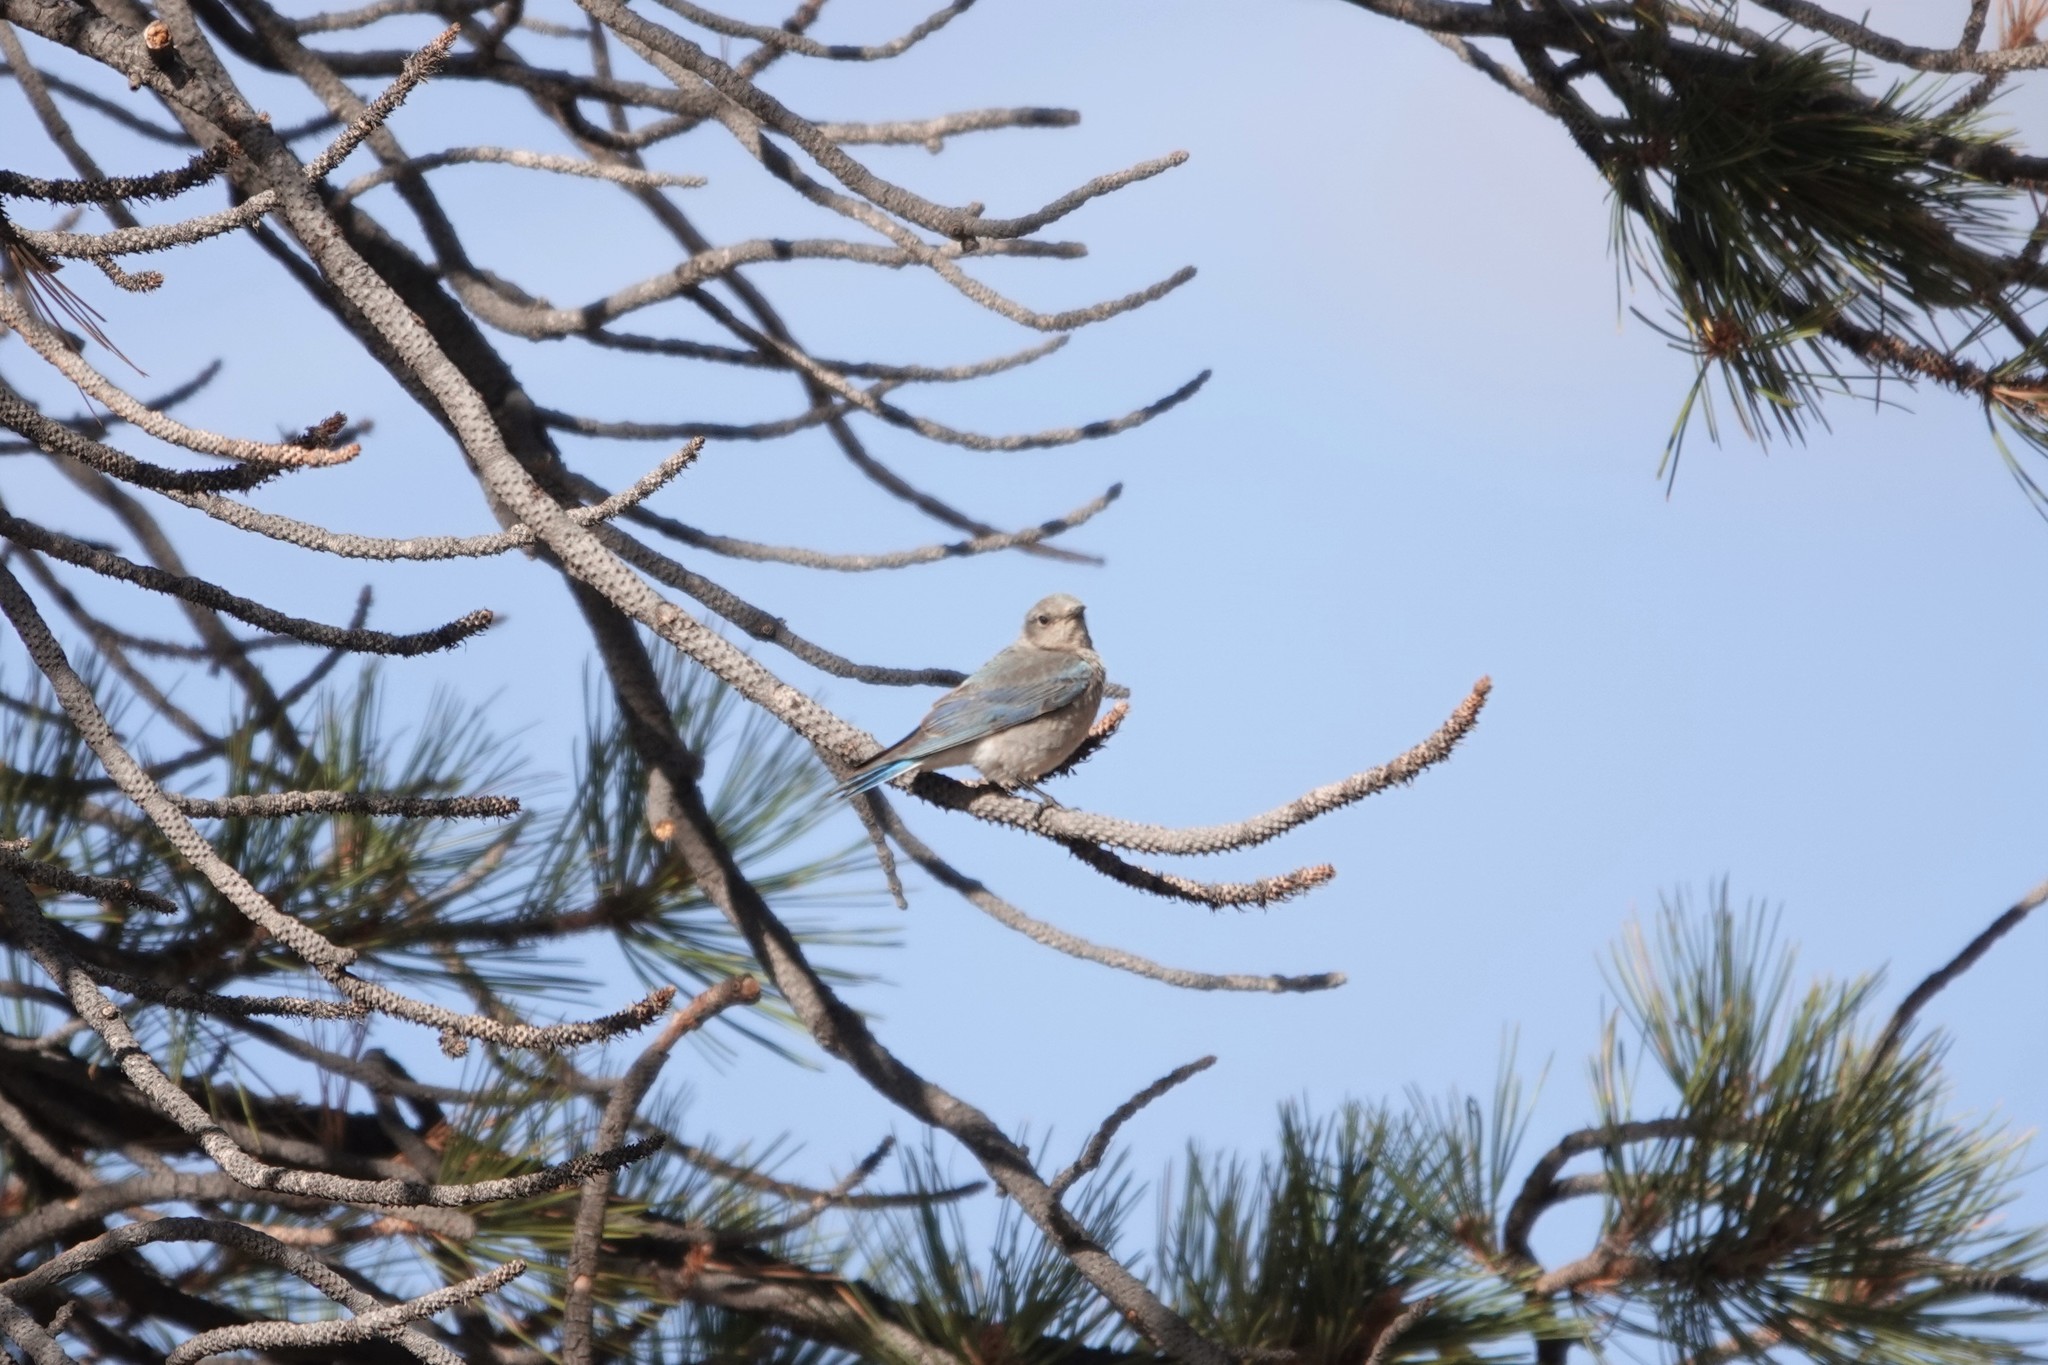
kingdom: Animalia
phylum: Chordata
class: Aves
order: Passeriformes
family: Turdidae
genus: Sialia
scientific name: Sialia currucoides
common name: Mountain bluebird
